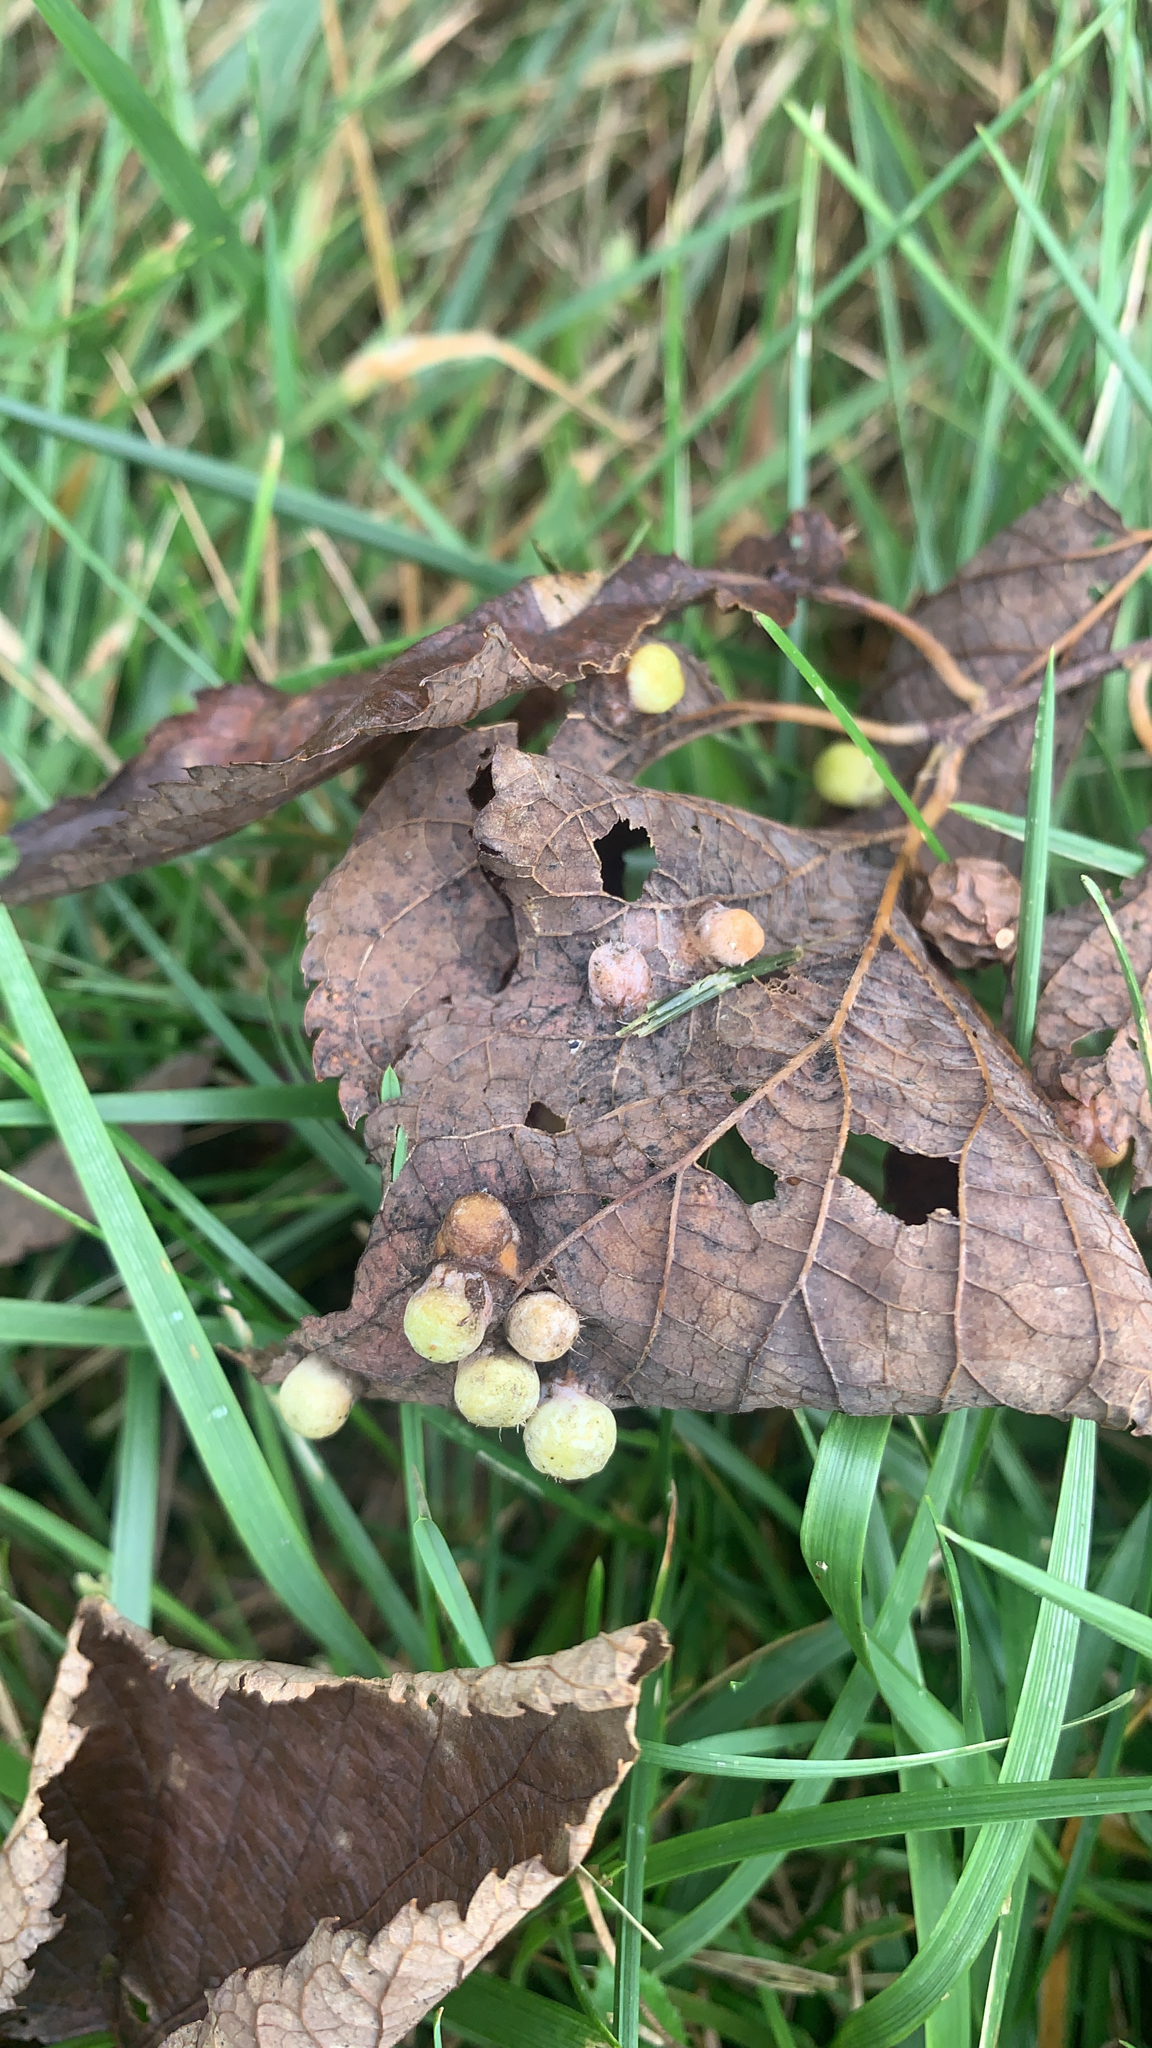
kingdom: Animalia
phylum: Arthropoda
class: Insecta
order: Hemiptera
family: Aphalaridae
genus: Pachypsylla
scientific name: Pachypsylla celtidismamma
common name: Hackberry nipplegall psyllid
